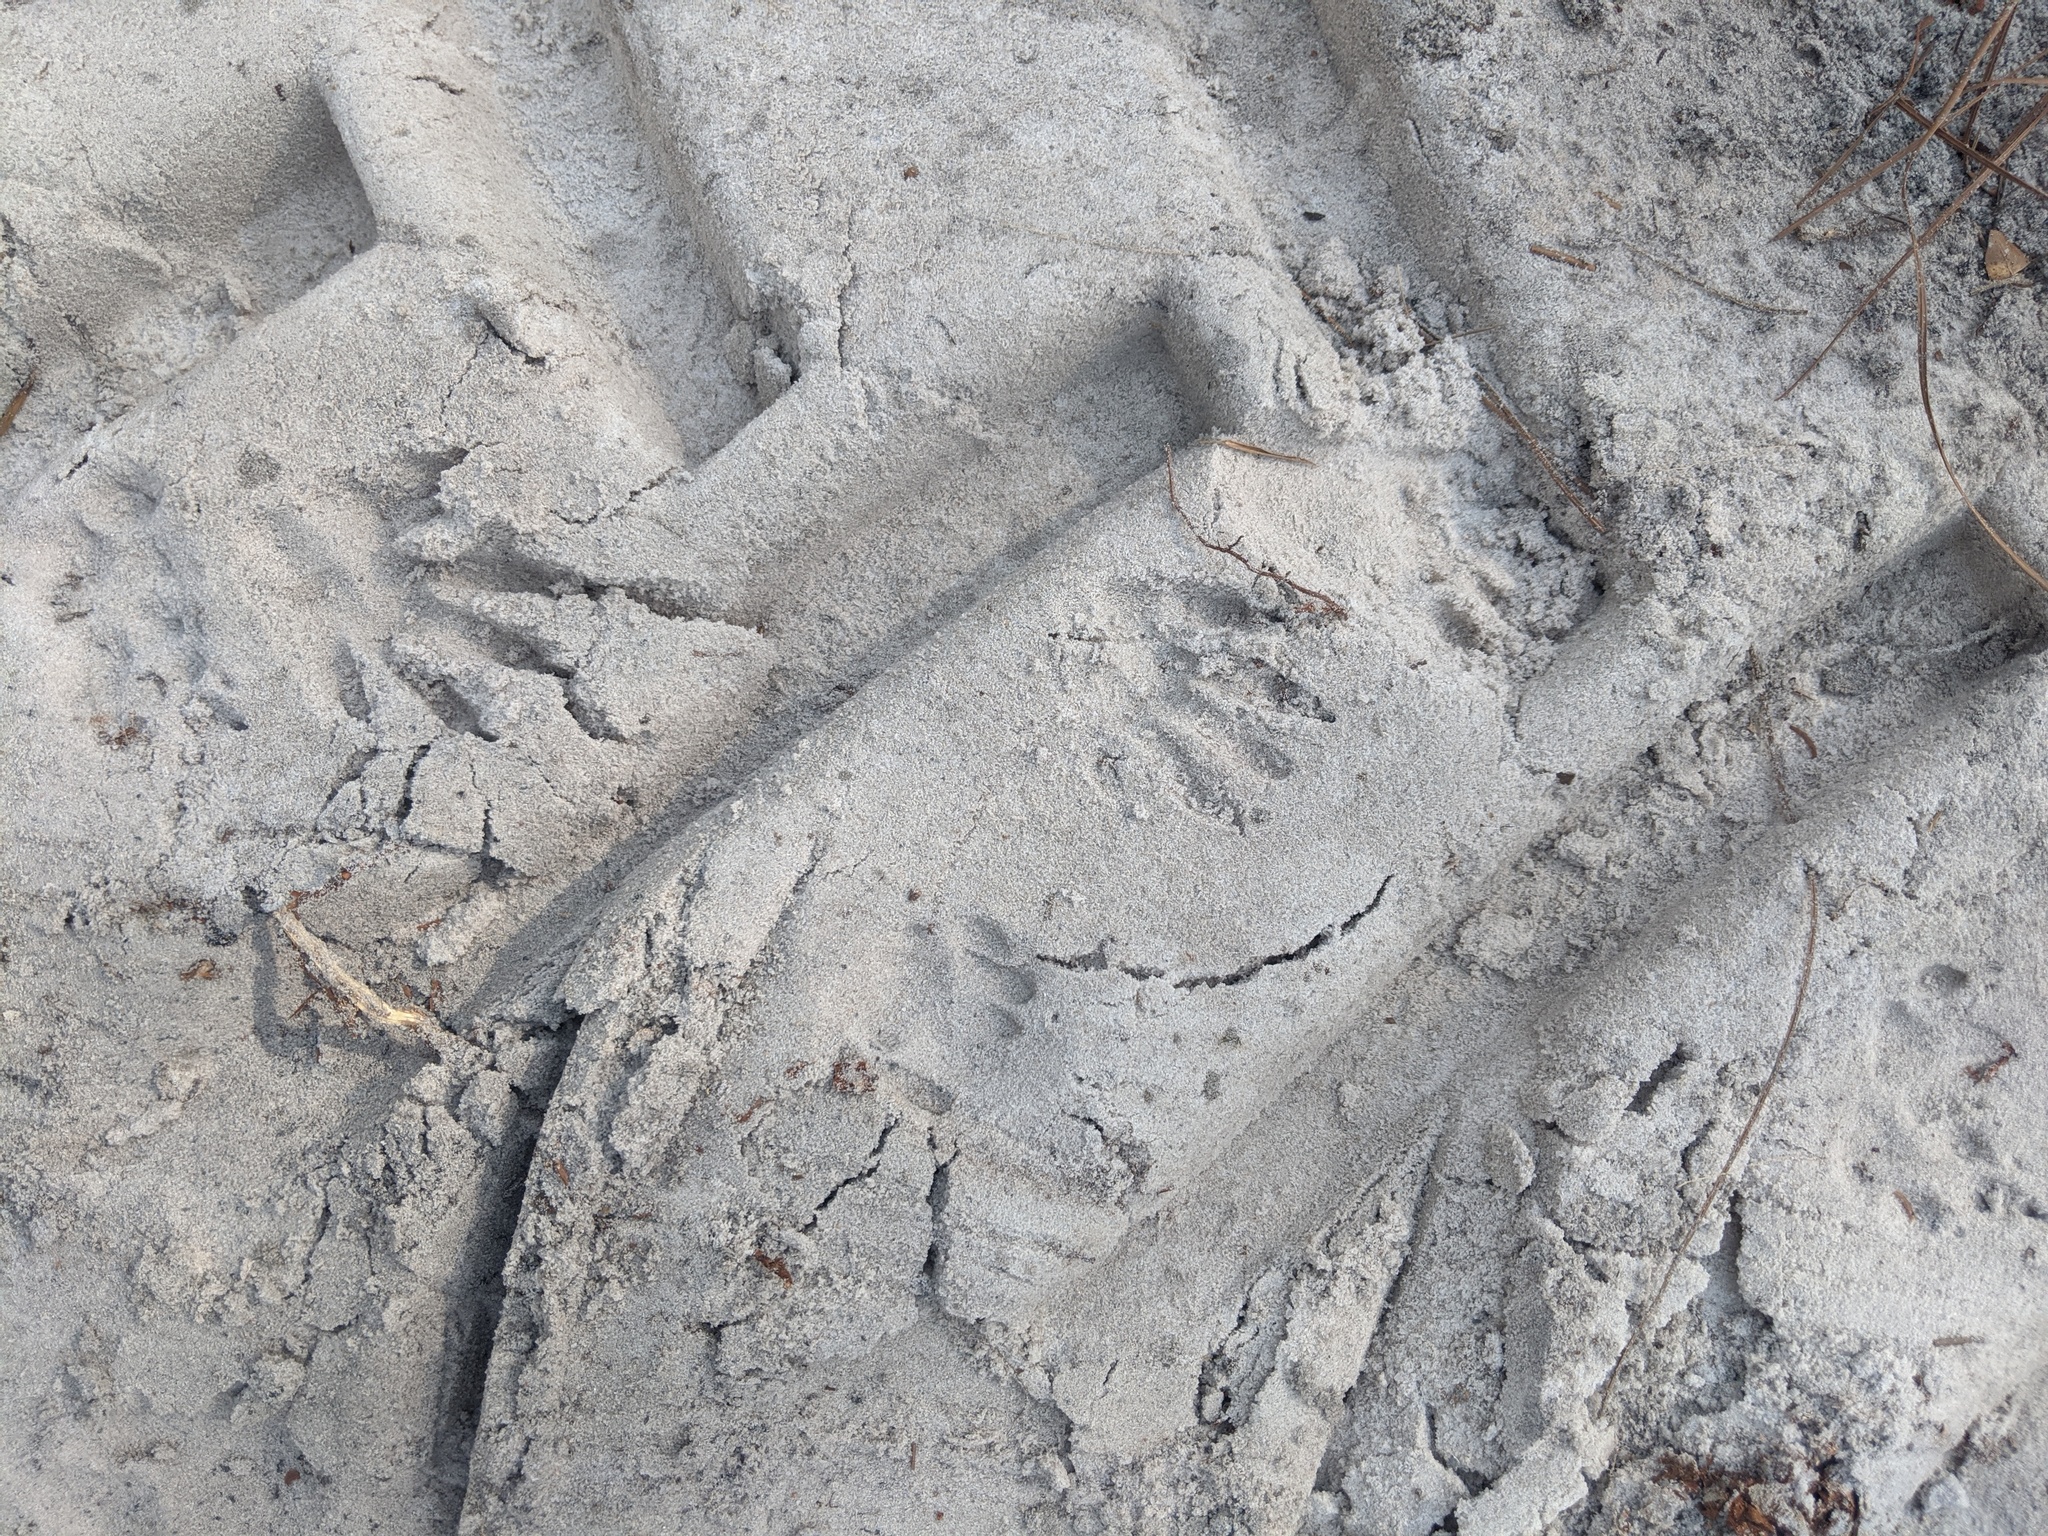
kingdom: Animalia
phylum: Chordata
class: Mammalia
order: Carnivora
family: Procyonidae
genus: Procyon
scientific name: Procyon lotor
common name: Raccoon
